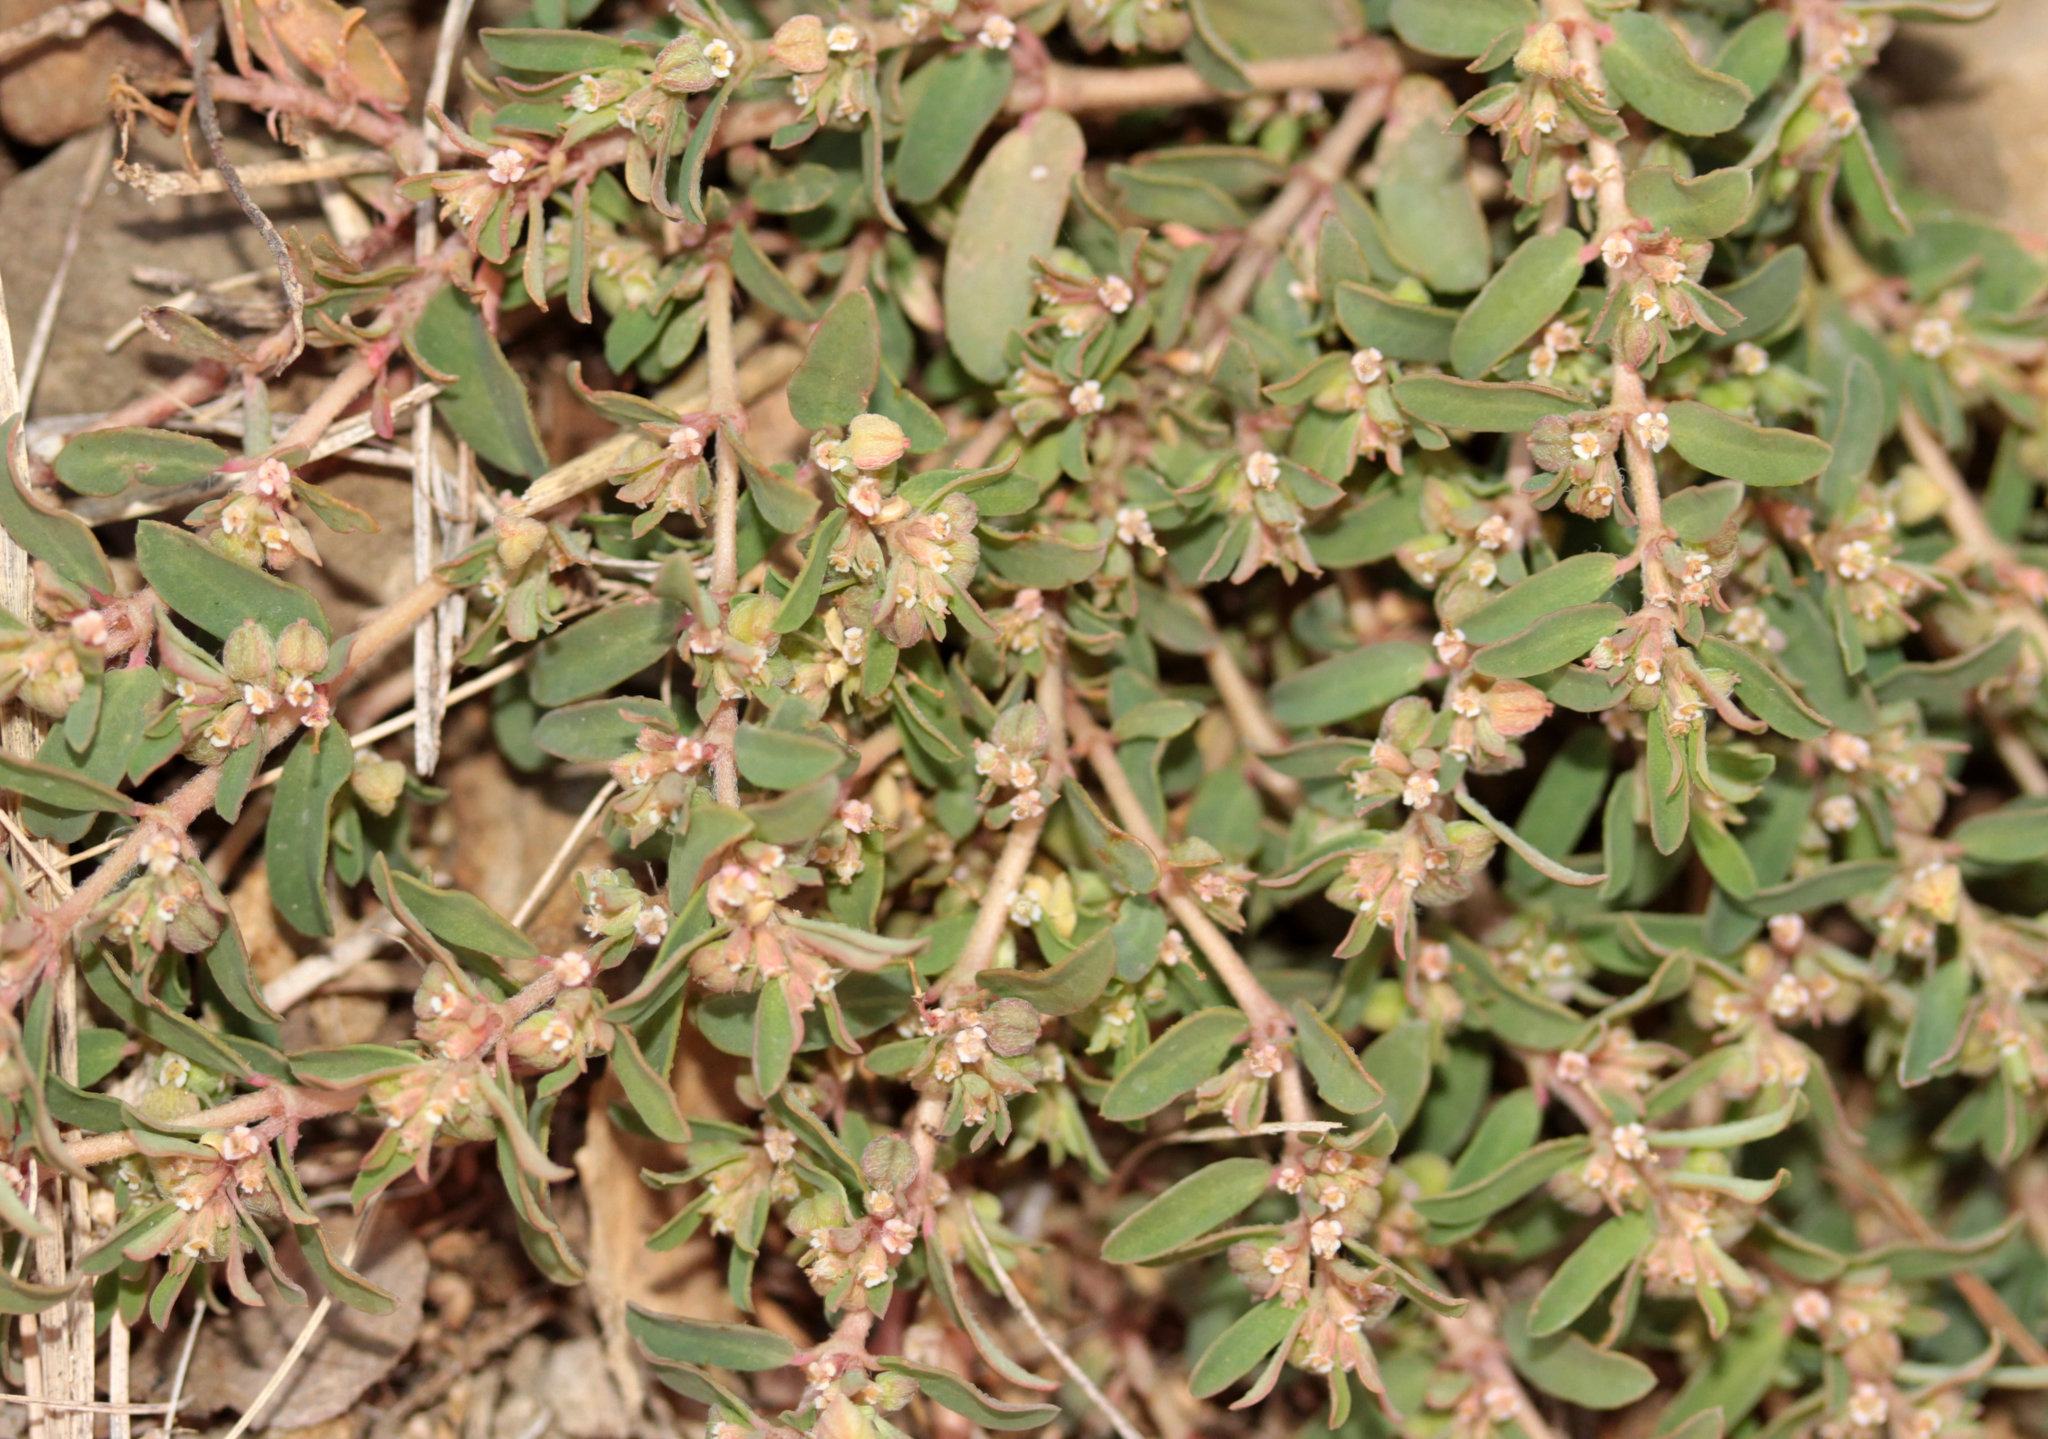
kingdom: Plantae
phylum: Tracheophyta
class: Magnoliopsida
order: Malpighiales
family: Euphorbiaceae
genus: Euphorbia
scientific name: Euphorbia maculata
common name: Spotted spurge
